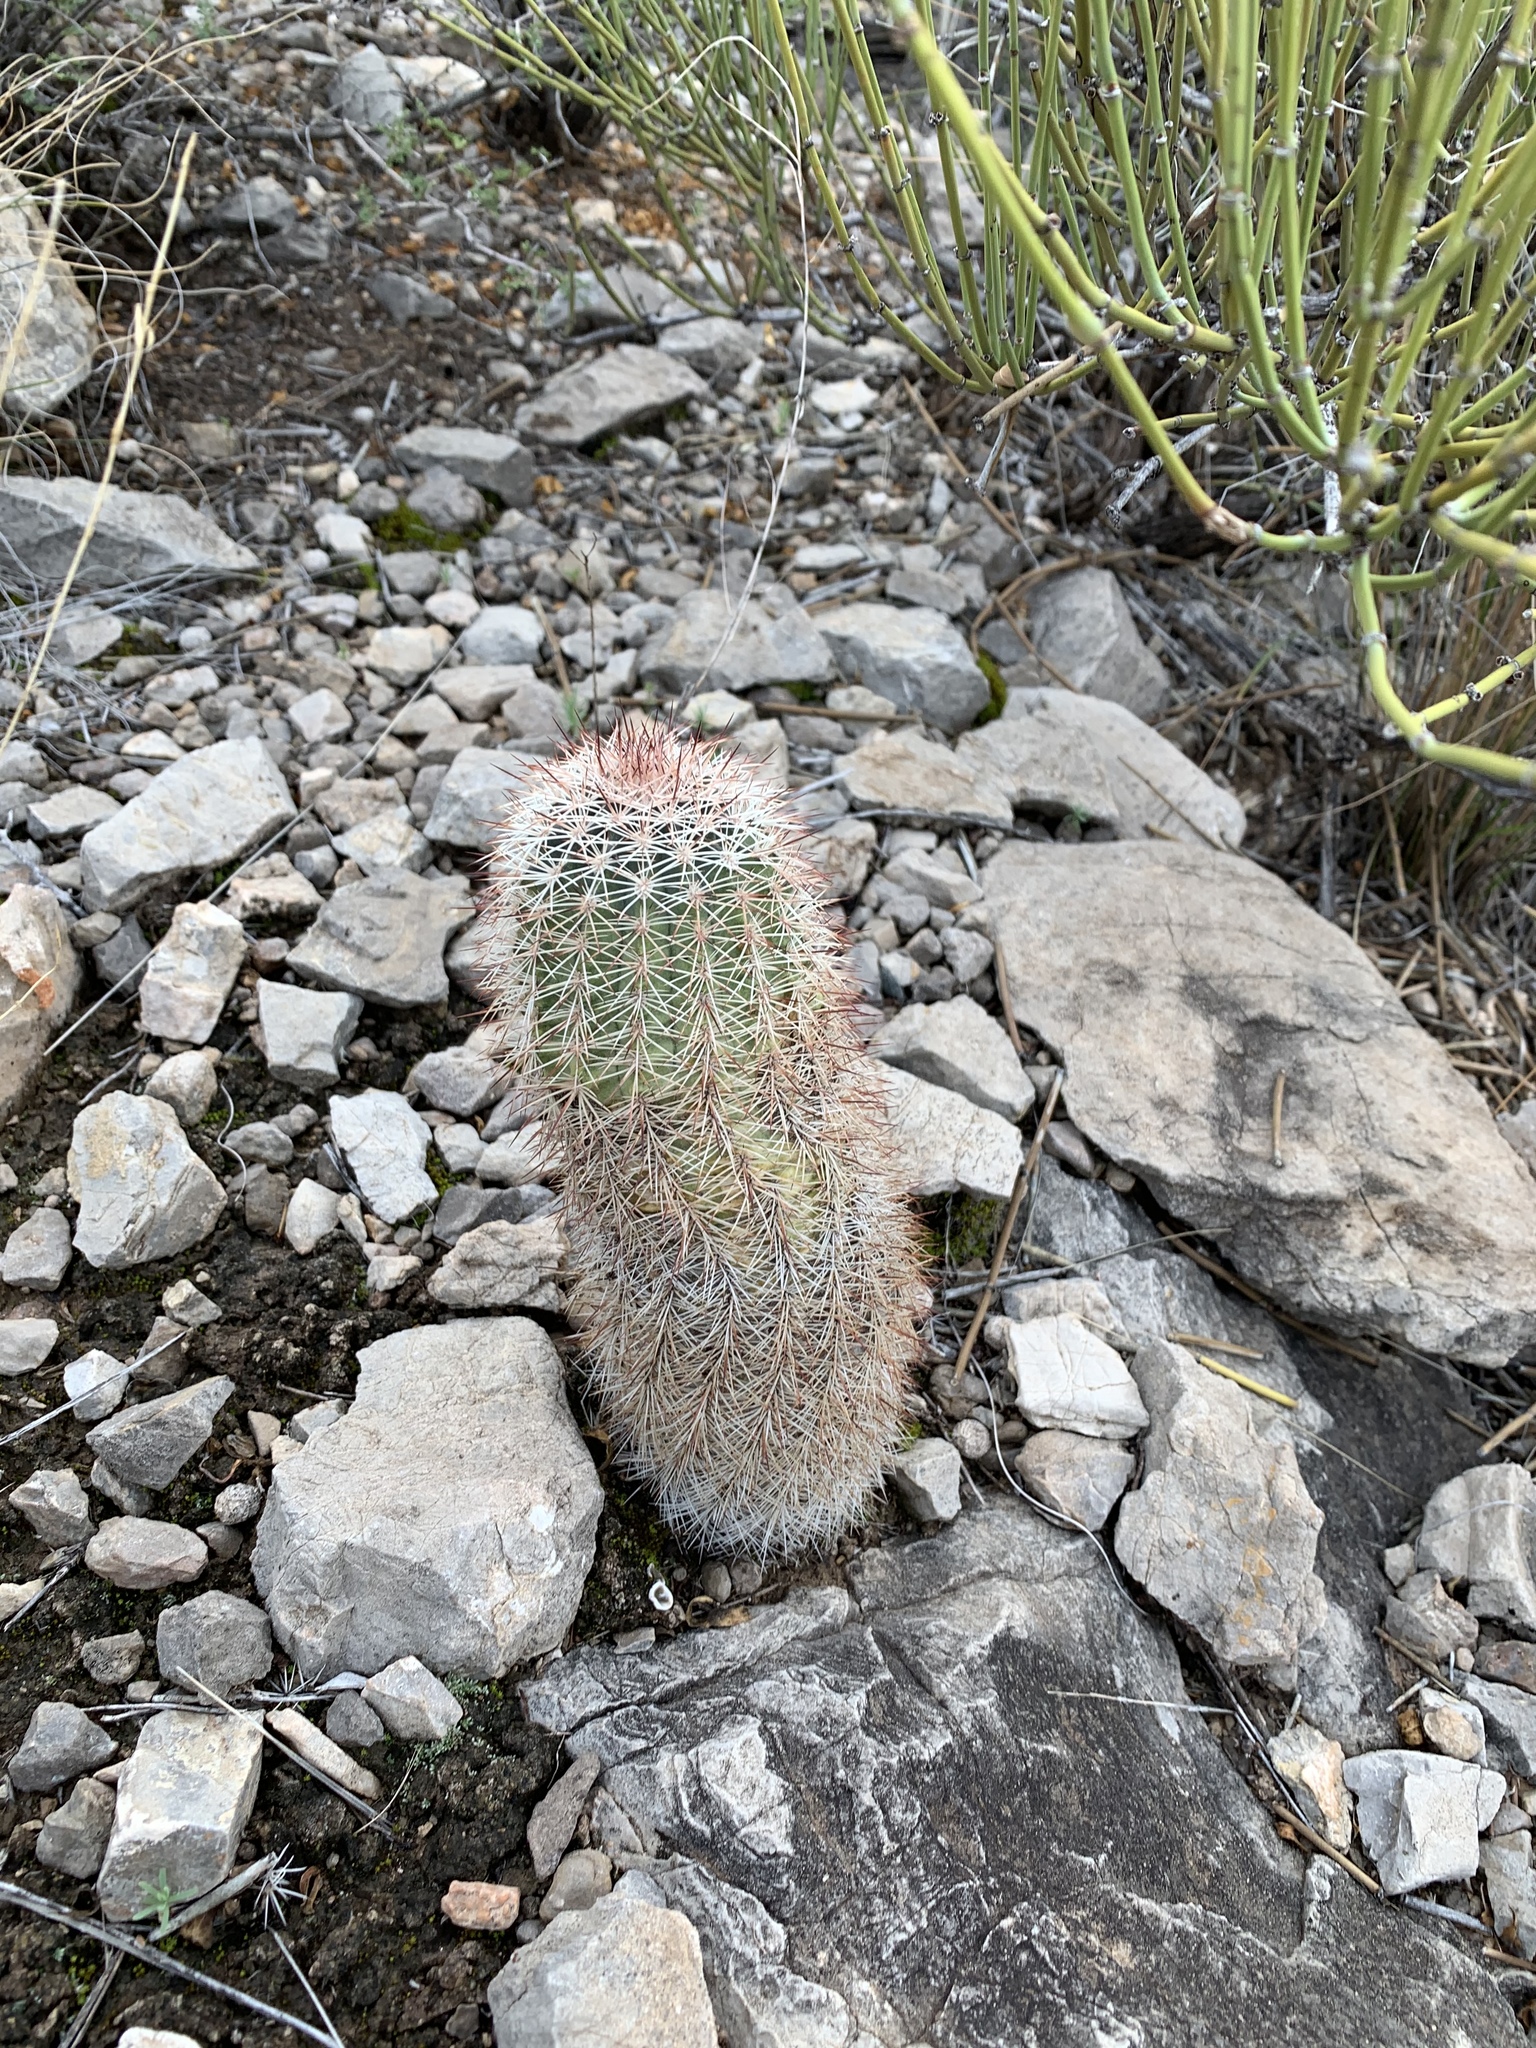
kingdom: Plantae
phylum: Tracheophyta
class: Magnoliopsida
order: Caryophyllales
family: Cactaceae
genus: Echinocereus
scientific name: Echinocereus dasyacanthus
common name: Spiny hedgehog cactus
